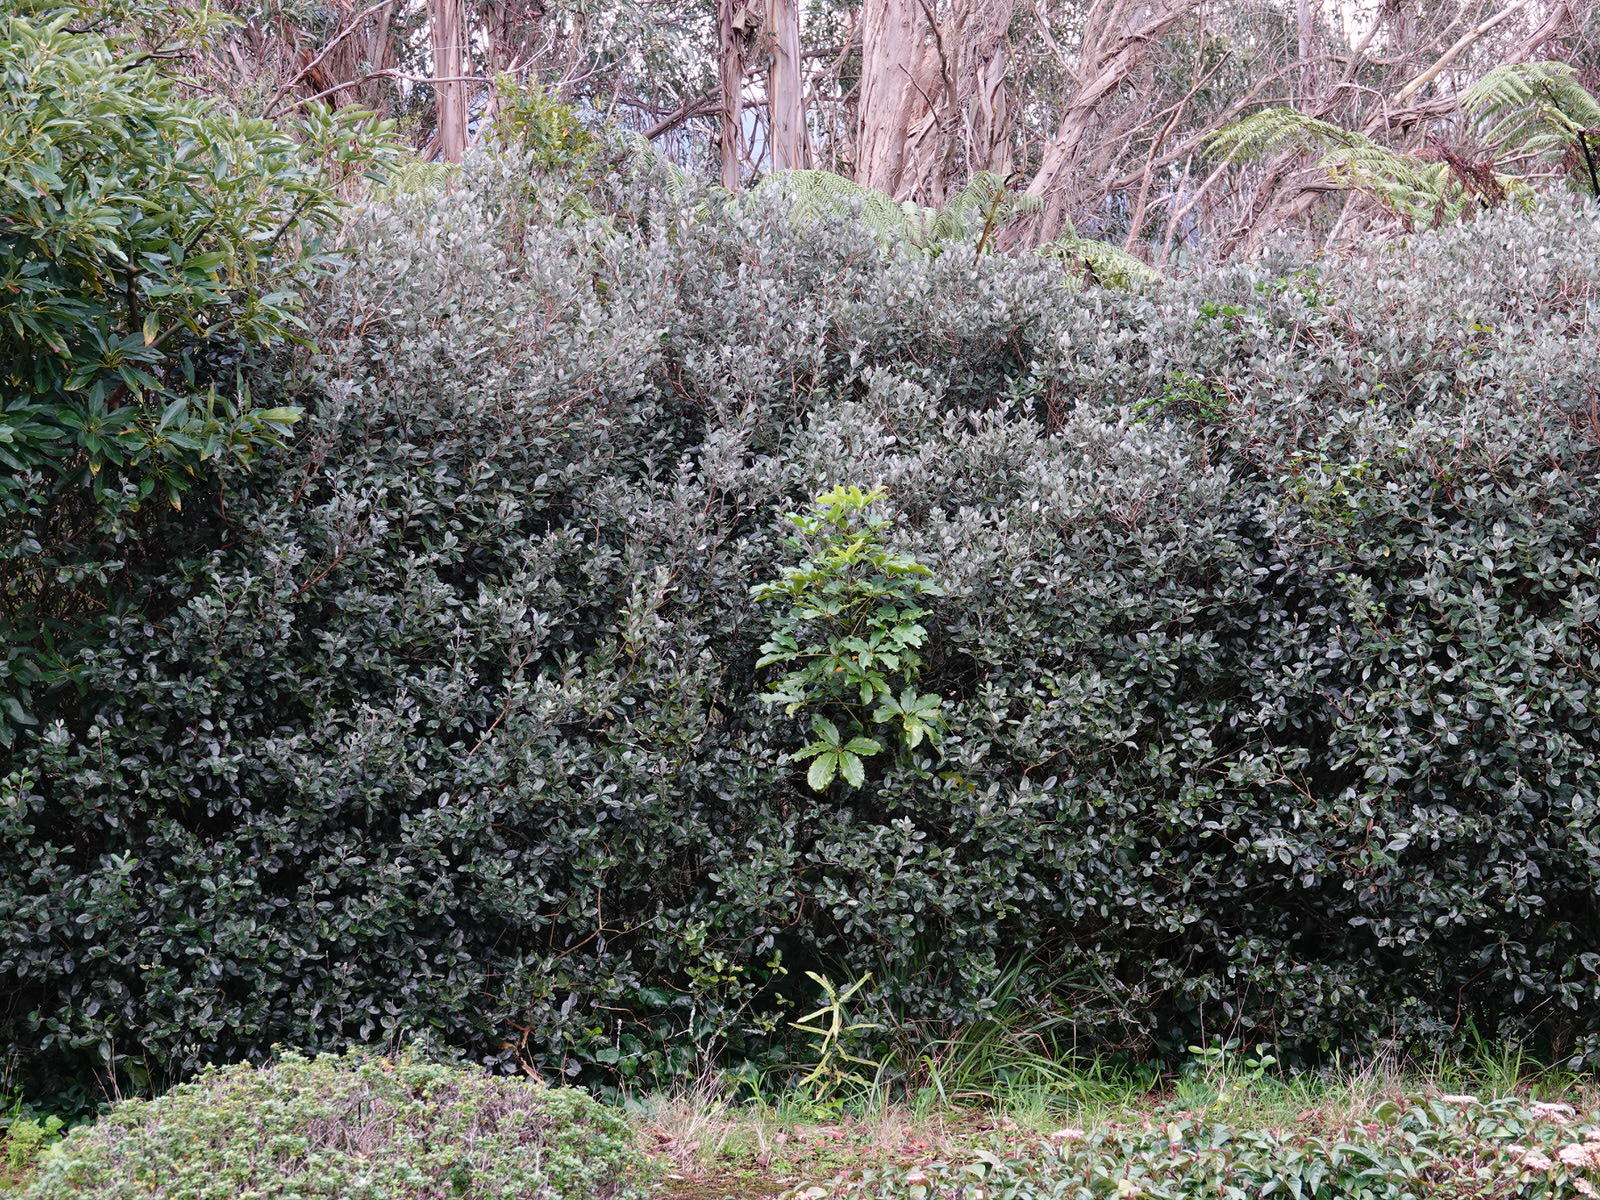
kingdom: Plantae
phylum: Tracheophyta
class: Magnoliopsida
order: Apiales
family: Araliaceae
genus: Neopanax
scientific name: Neopanax arboreus
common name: Five-fingers
